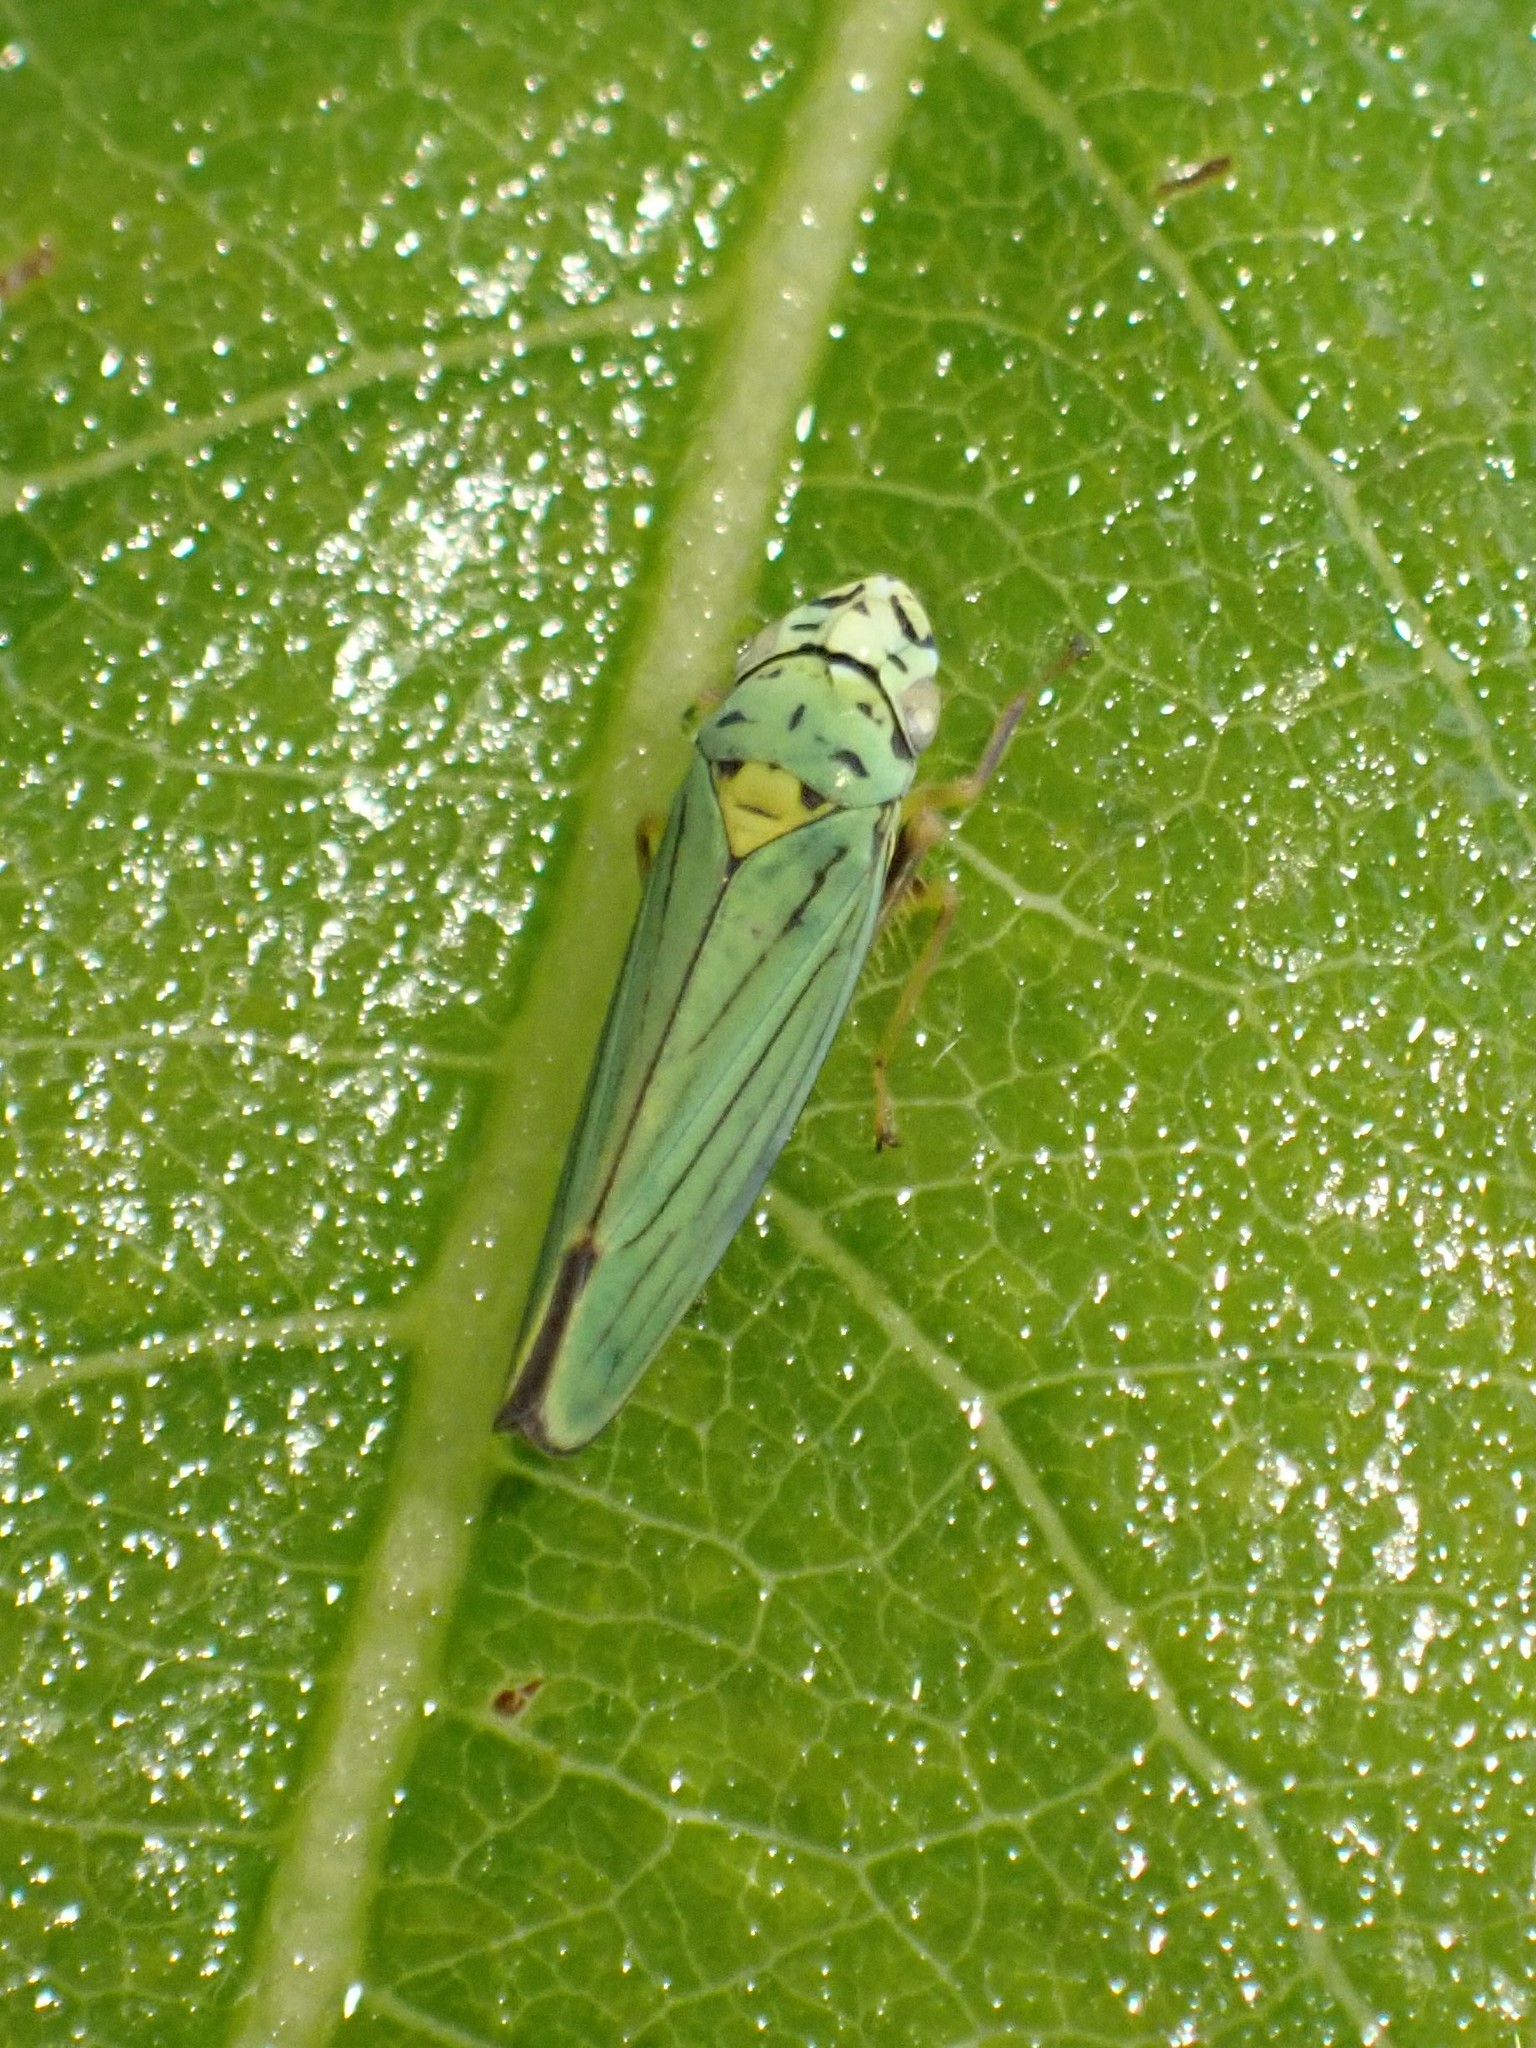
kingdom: Animalia
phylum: Arthropoda
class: Insecta
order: Hemiptera
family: Cicadellidae
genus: Graphocephala
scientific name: Graphocephala atropunctata
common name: Blue-green sharpshooter
